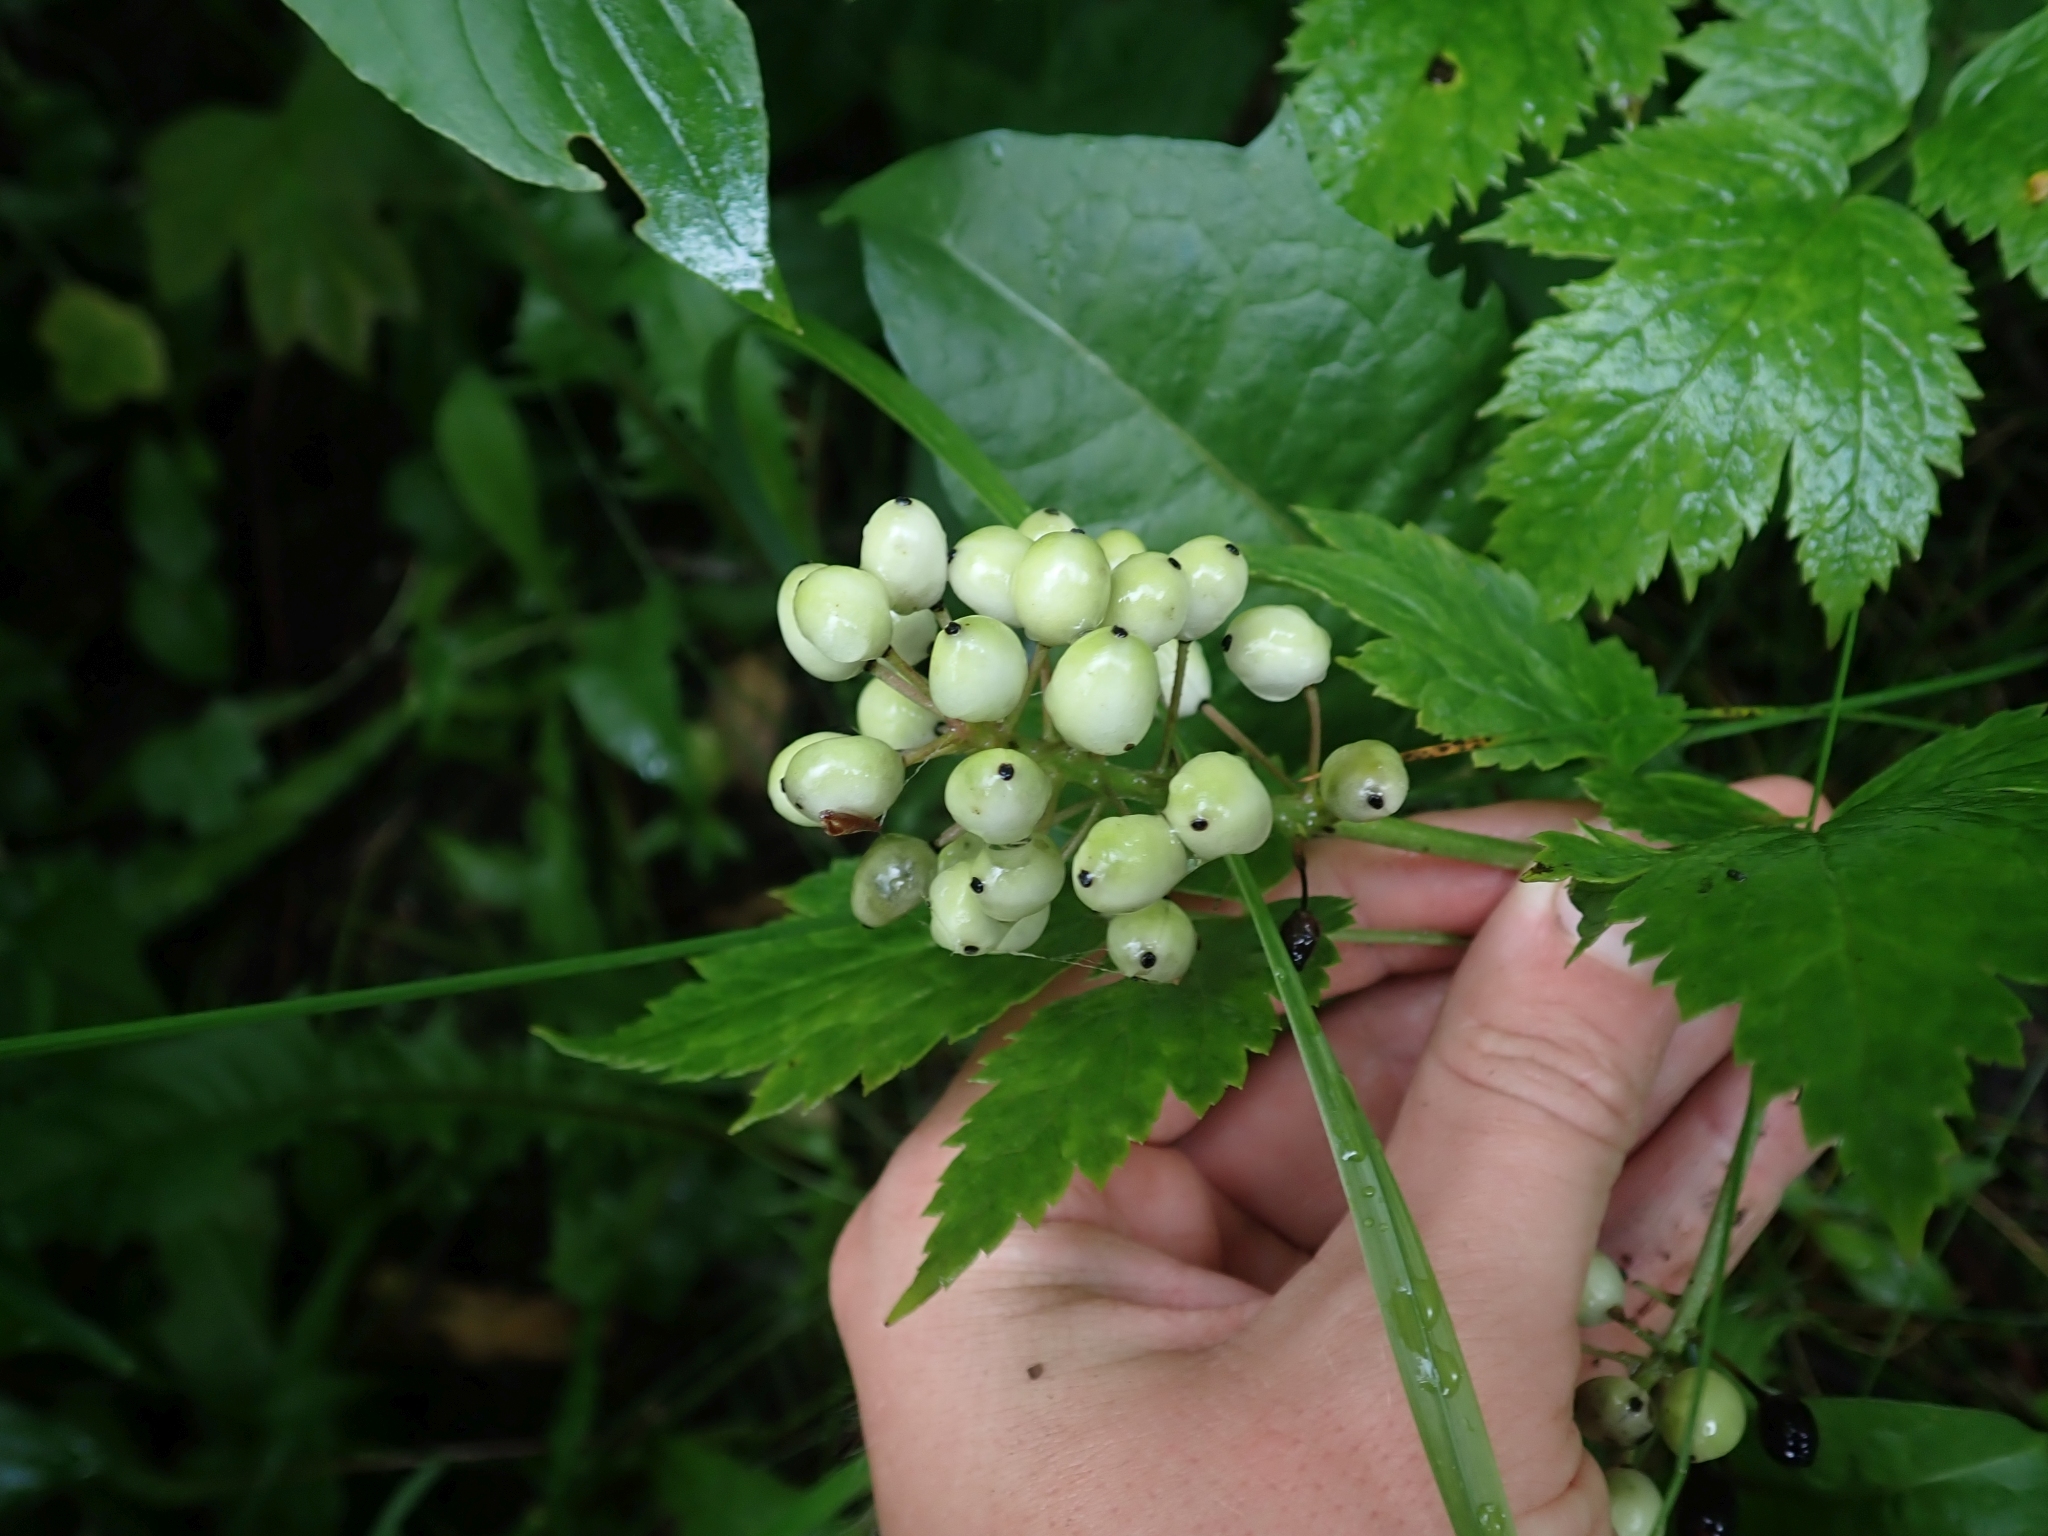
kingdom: Plantae
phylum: Tracheophyta
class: Magnoliopsida
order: Ranunculales
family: Ranunculaceae
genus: Actaea
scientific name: Actaea rubra
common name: Red baneberry
